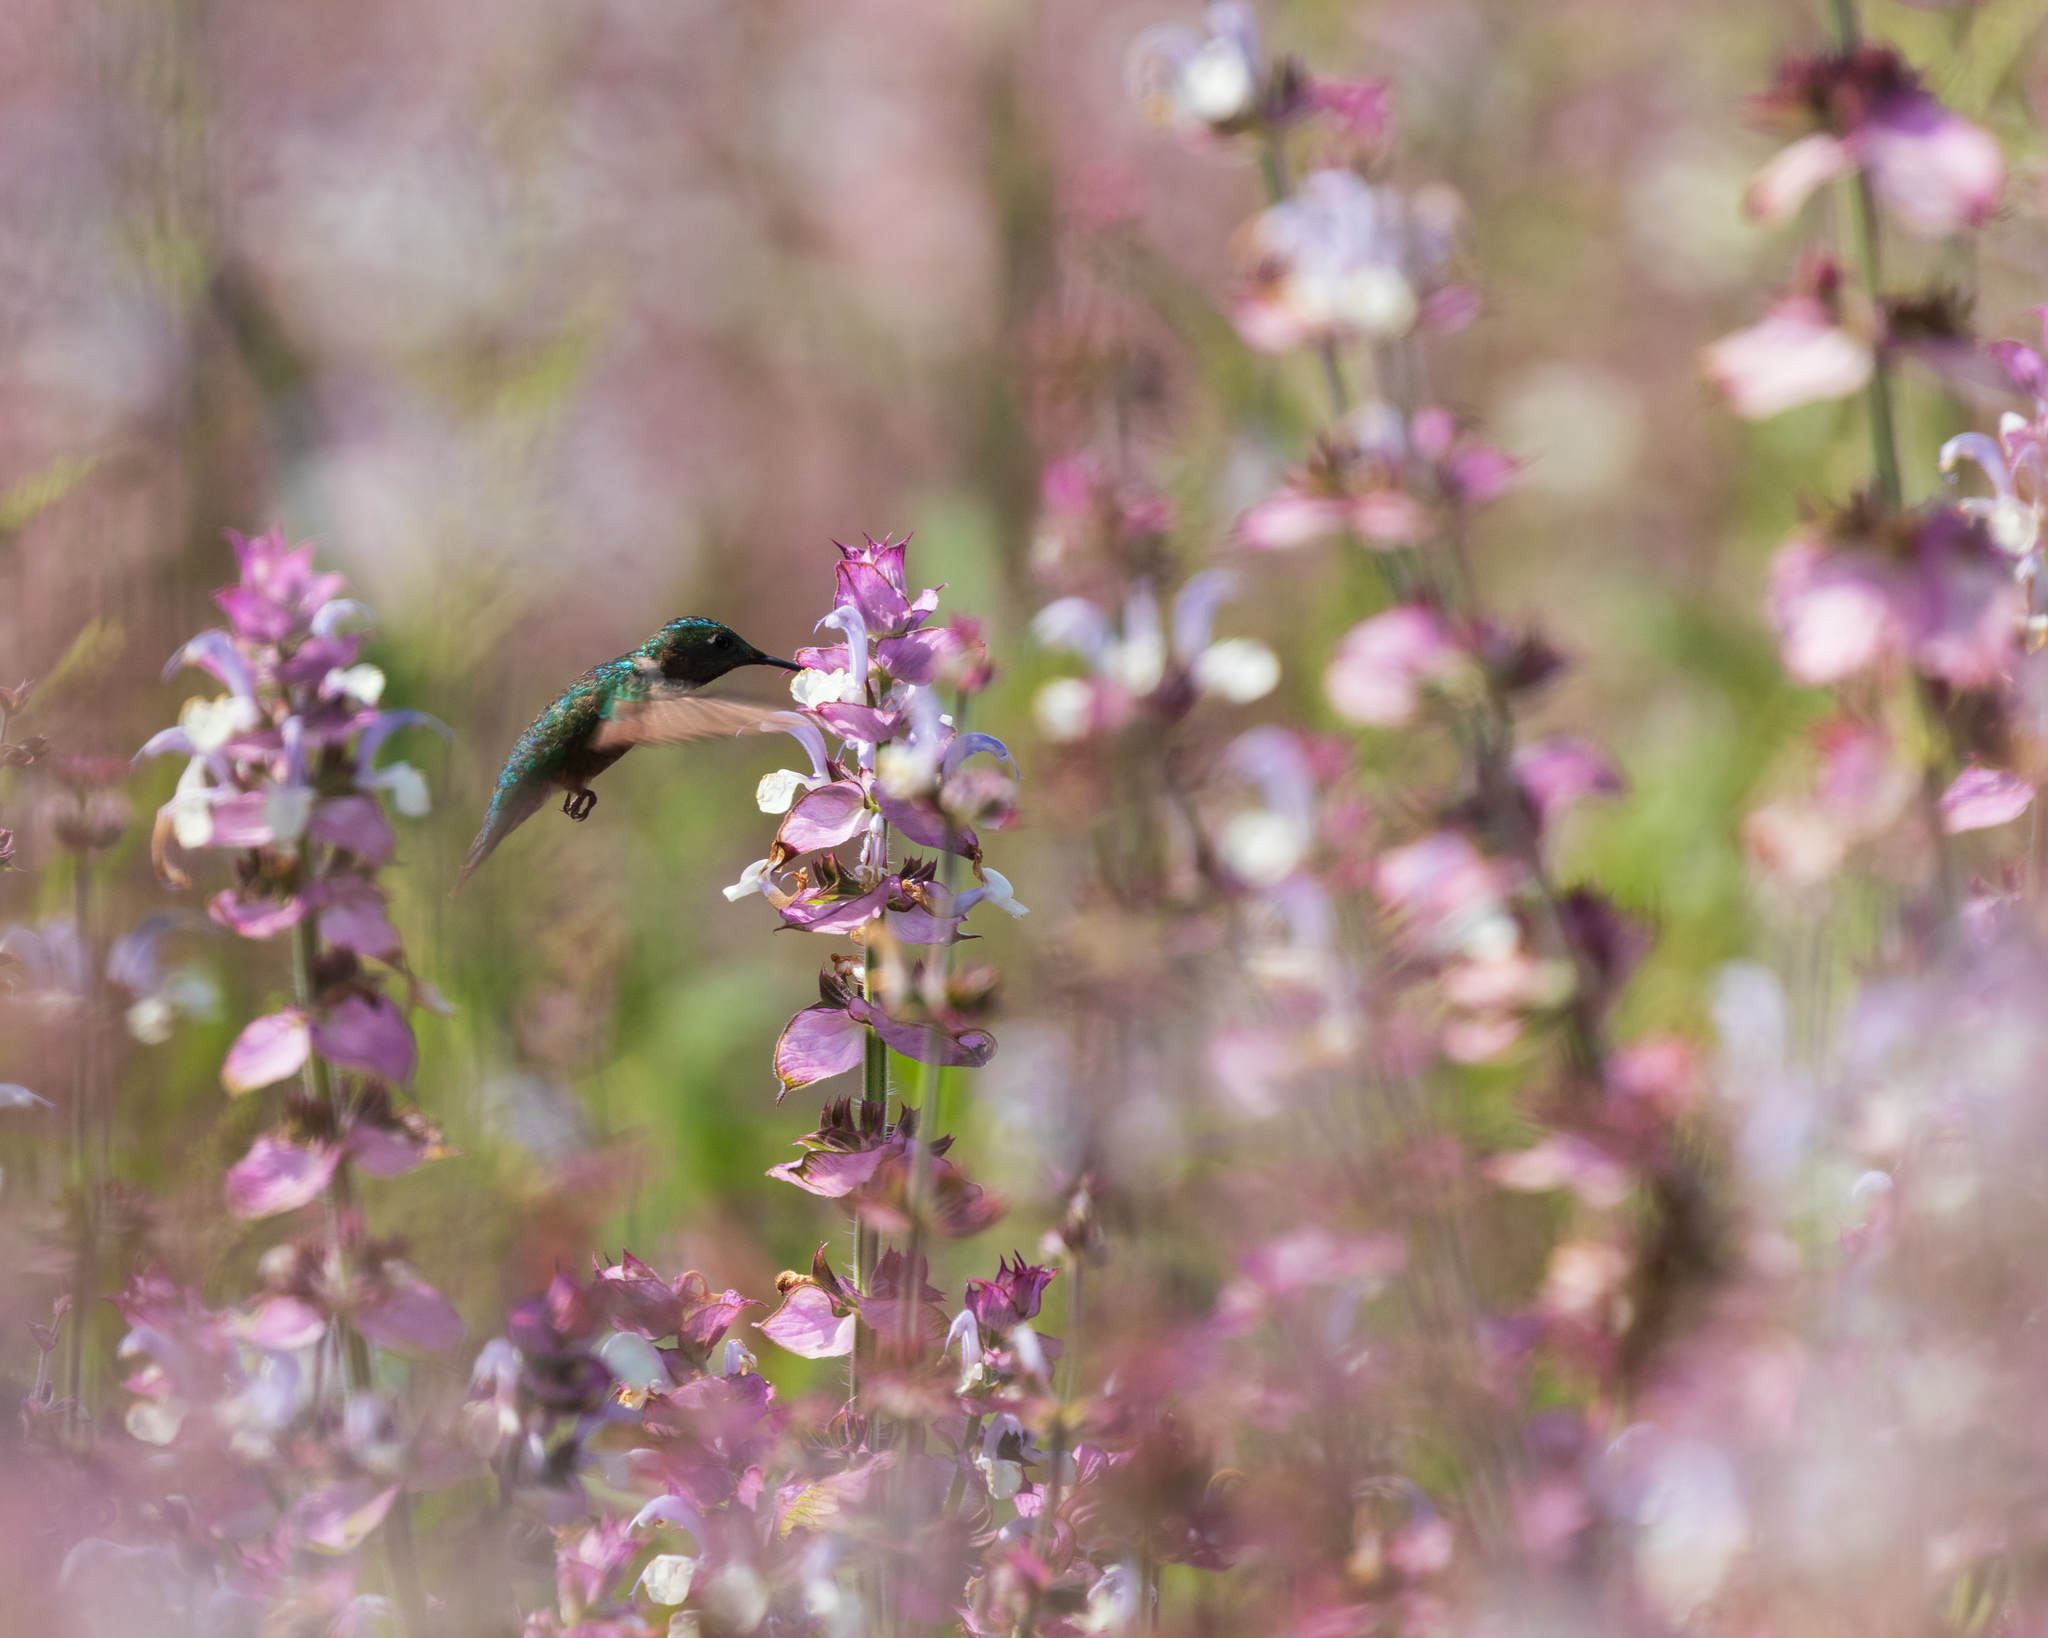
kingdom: Animalia
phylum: Chordata
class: Aves
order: Apodiformes
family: Trochilidae
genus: Archilochus
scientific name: Archilochus colubris
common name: Ruby-throated hummingbird
